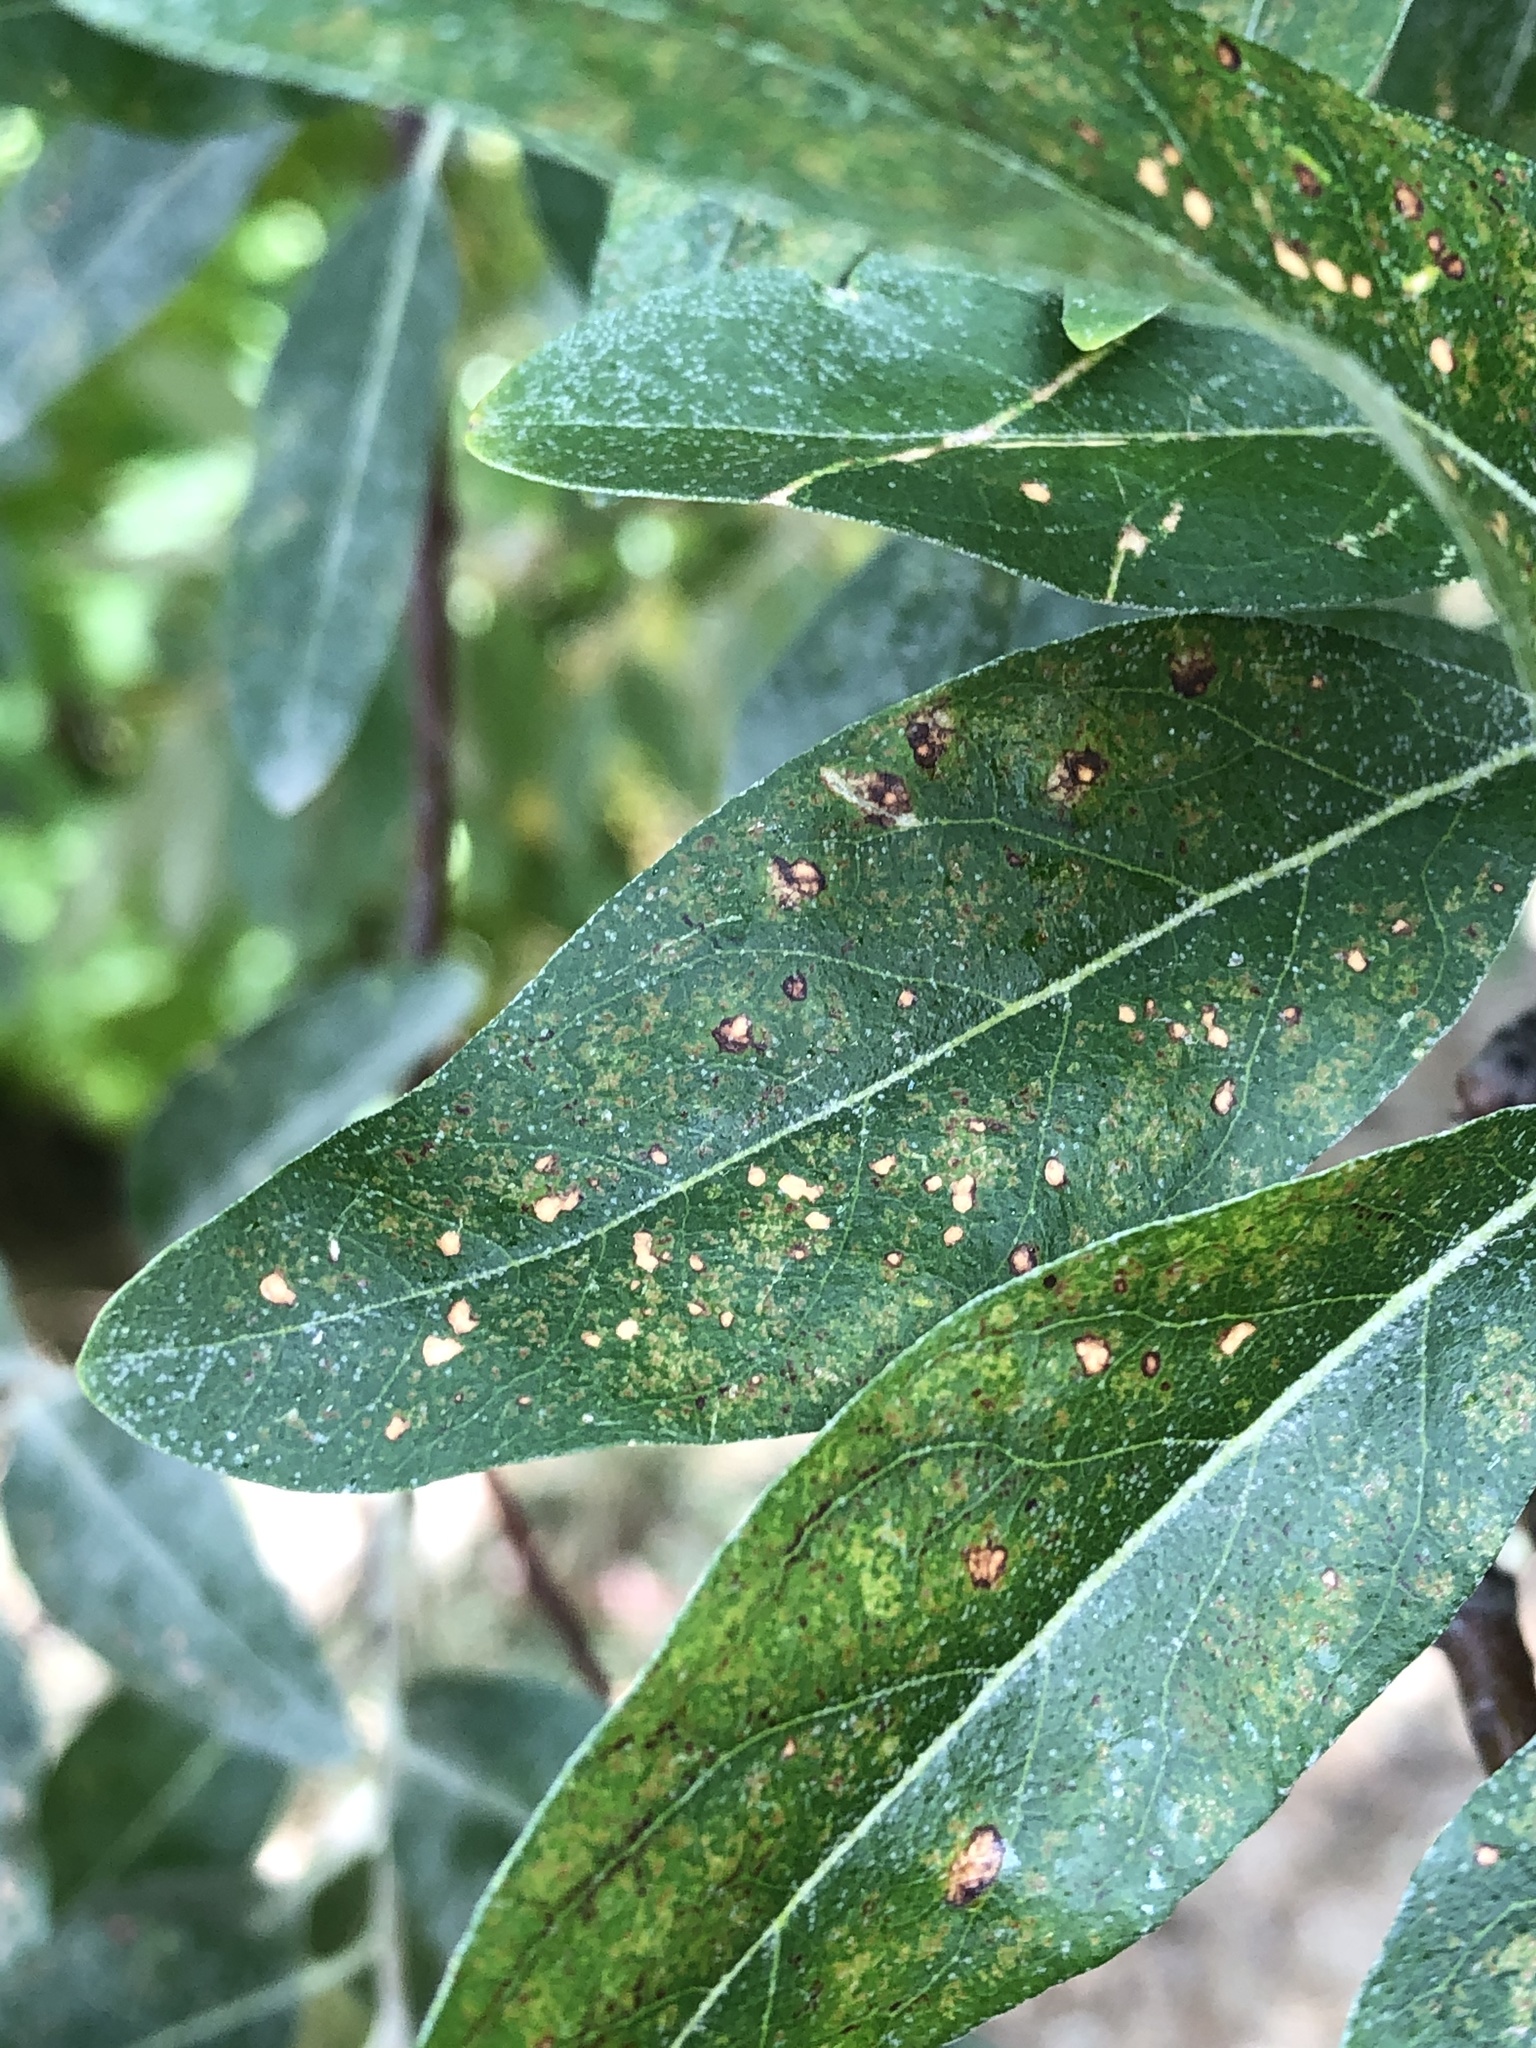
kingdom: Plantae
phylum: Tracheophyta
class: Magnoliopsida
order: Rosales
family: Elaeagnaceae
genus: Elaeagnus
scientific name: Elaeagnus angustifolia
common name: Russian olive
